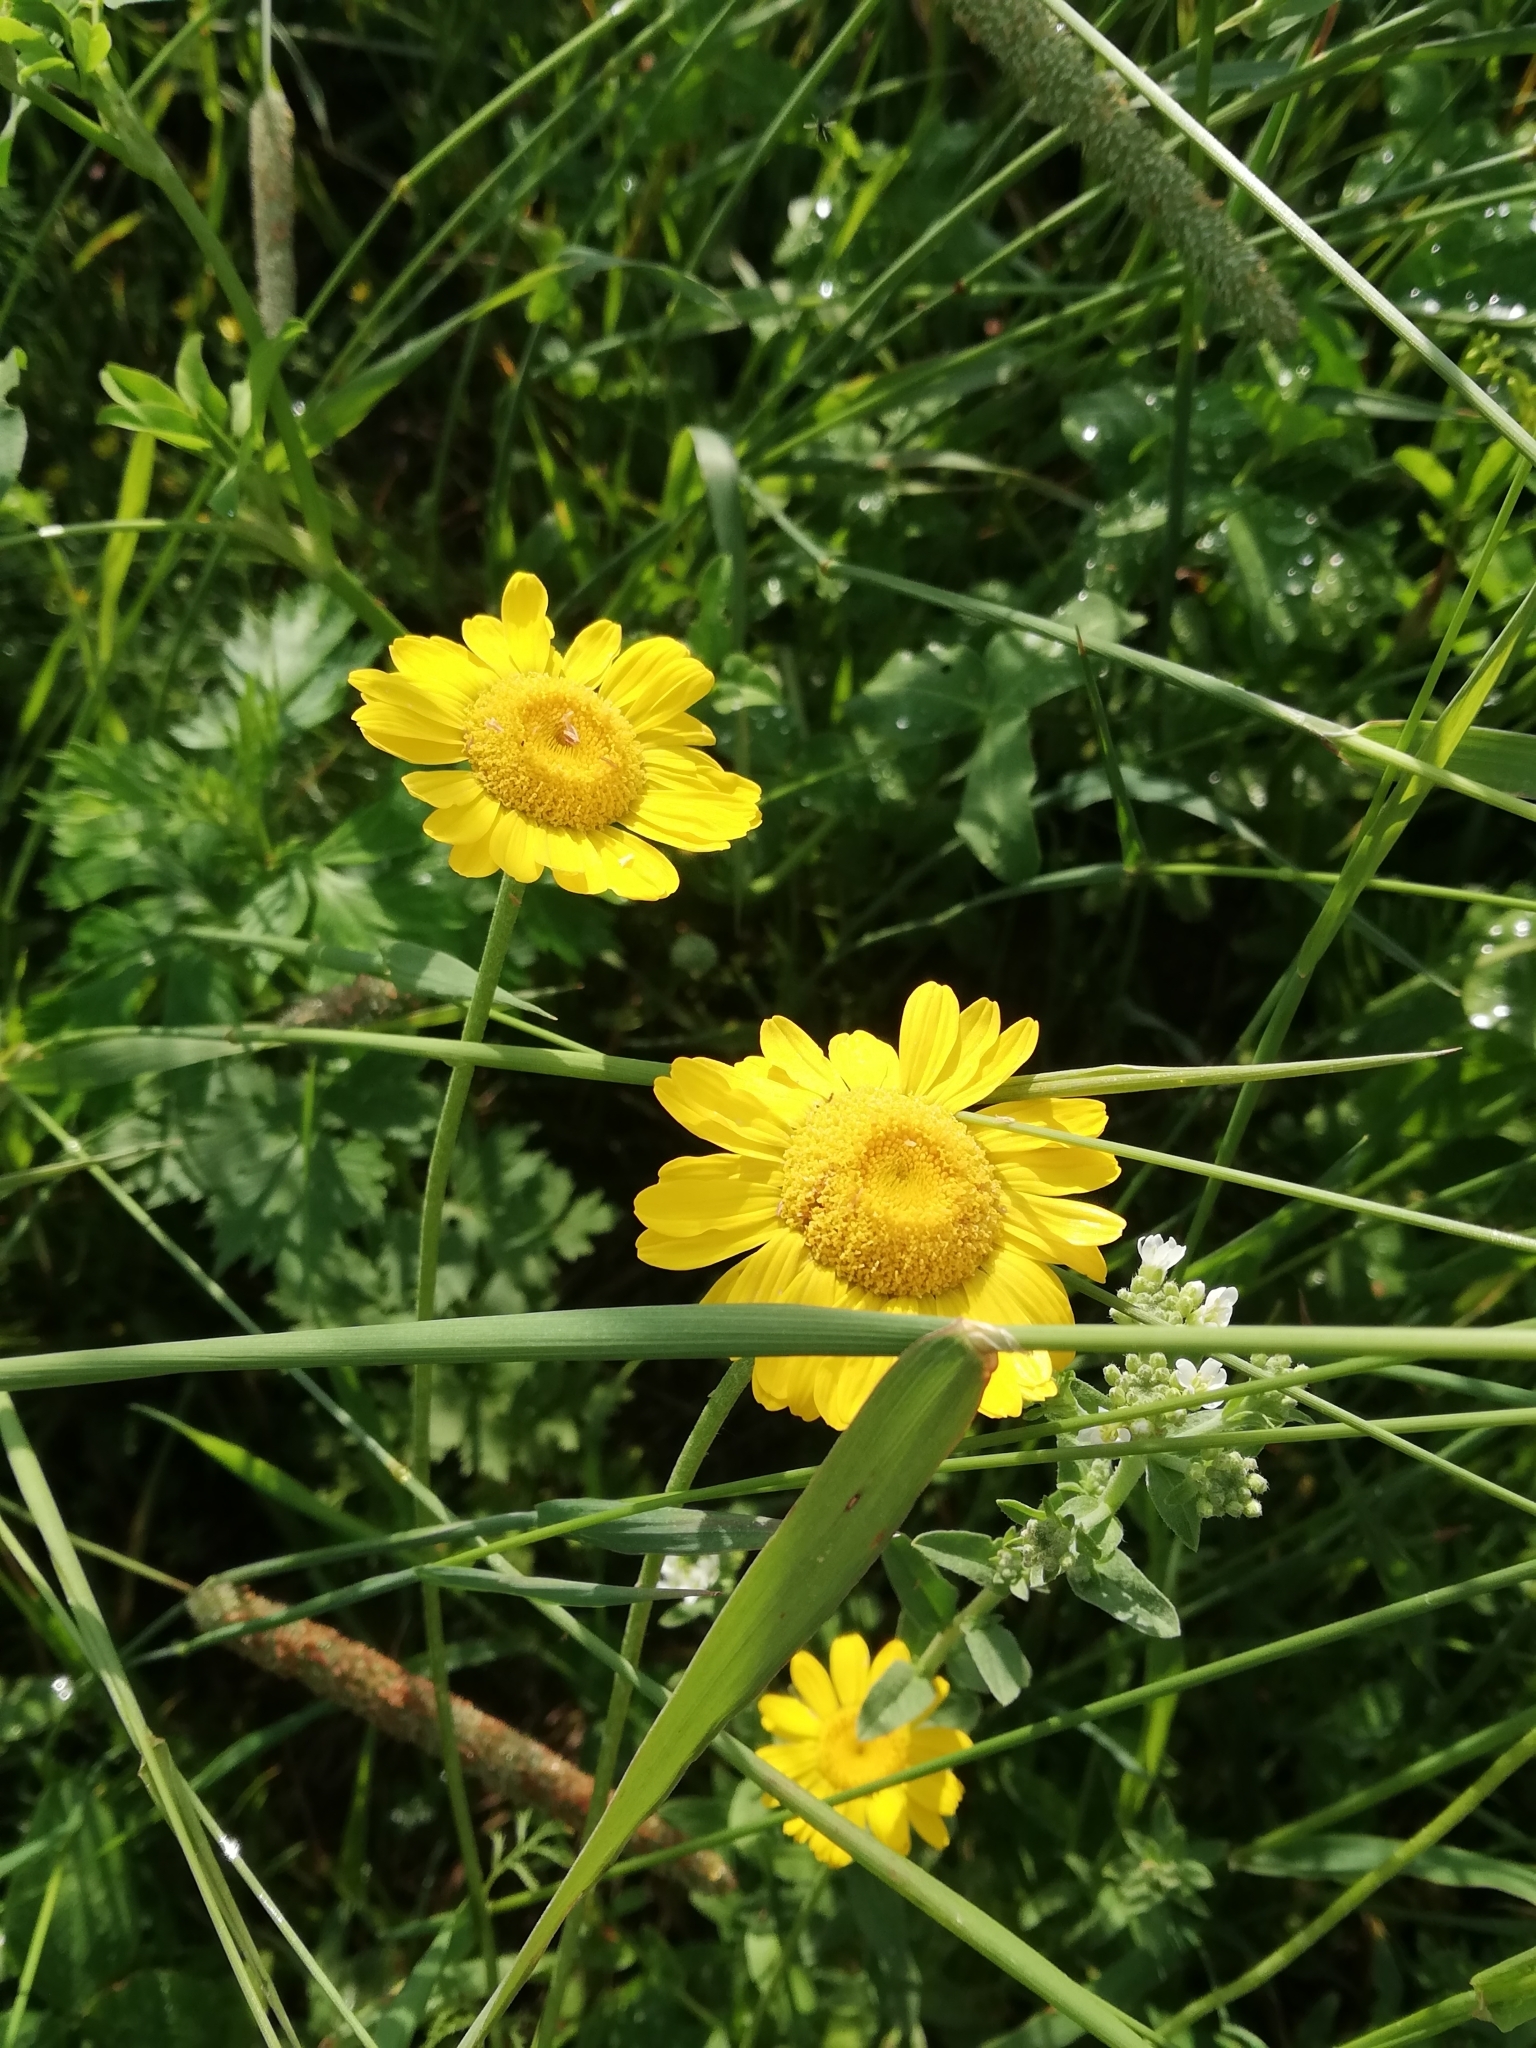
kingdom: Plantae
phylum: Tracheophyta
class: Magnoliopsida
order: Asterales
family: Asteraceae
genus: Cota
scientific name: Cota tinctoria
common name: Golden chamomile
